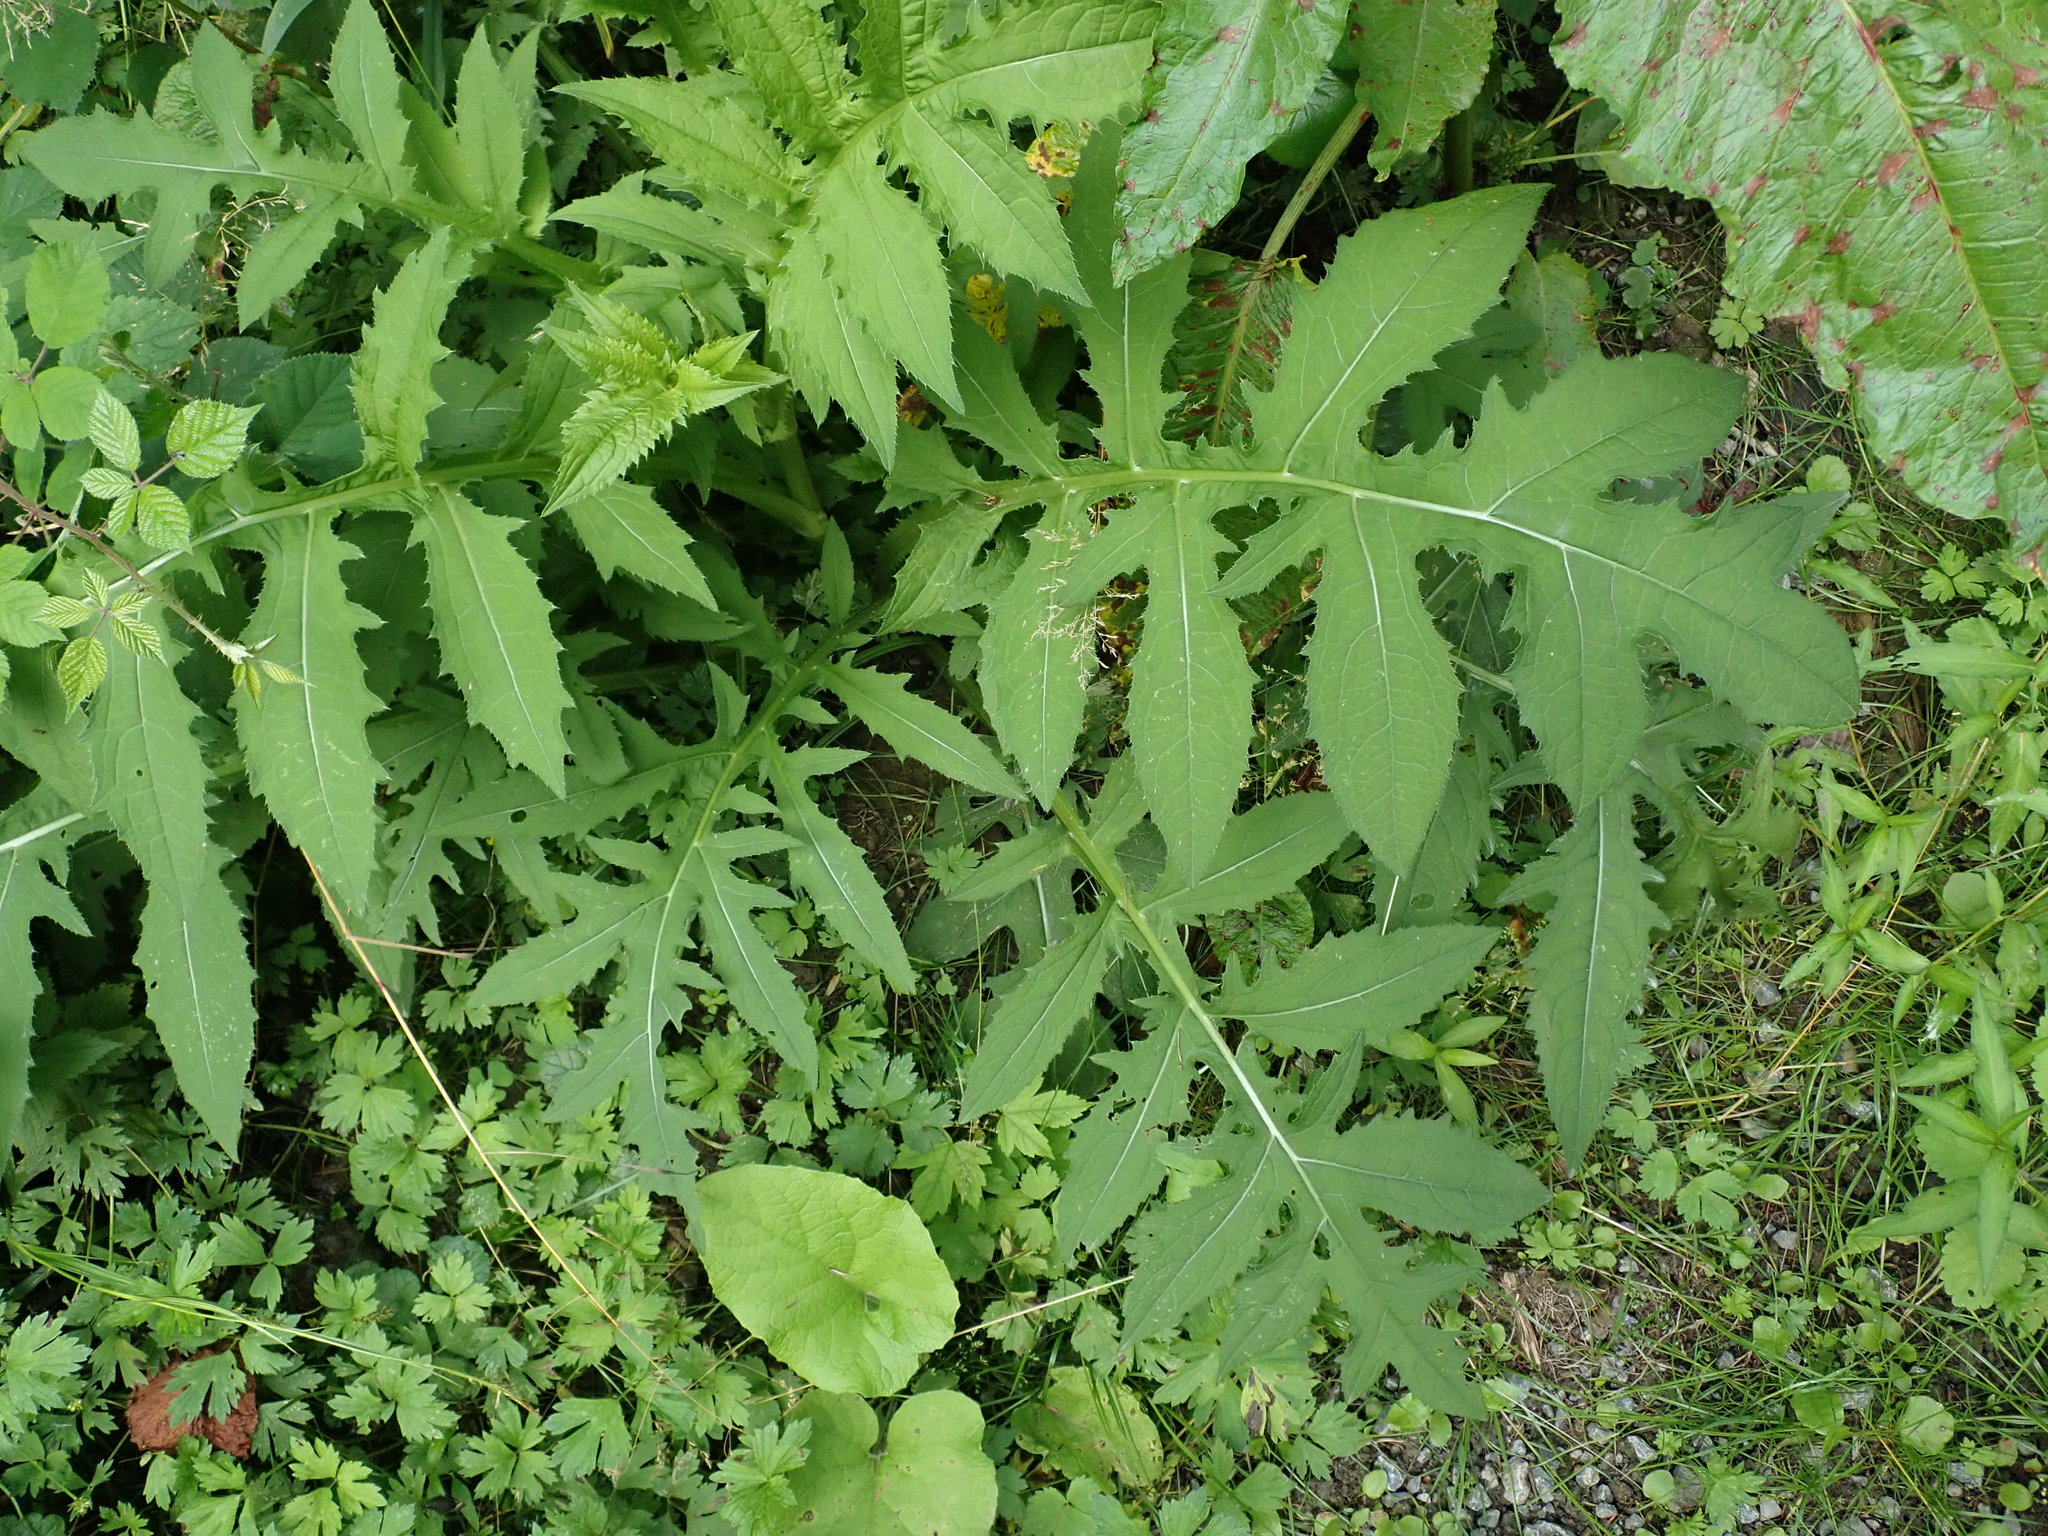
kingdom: Plantae
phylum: Tracheophyta
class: Magnoliopsida
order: Asterales
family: Asteraceae
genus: Cirsium
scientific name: Cirsium oleraceum
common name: Cabbage thistle
